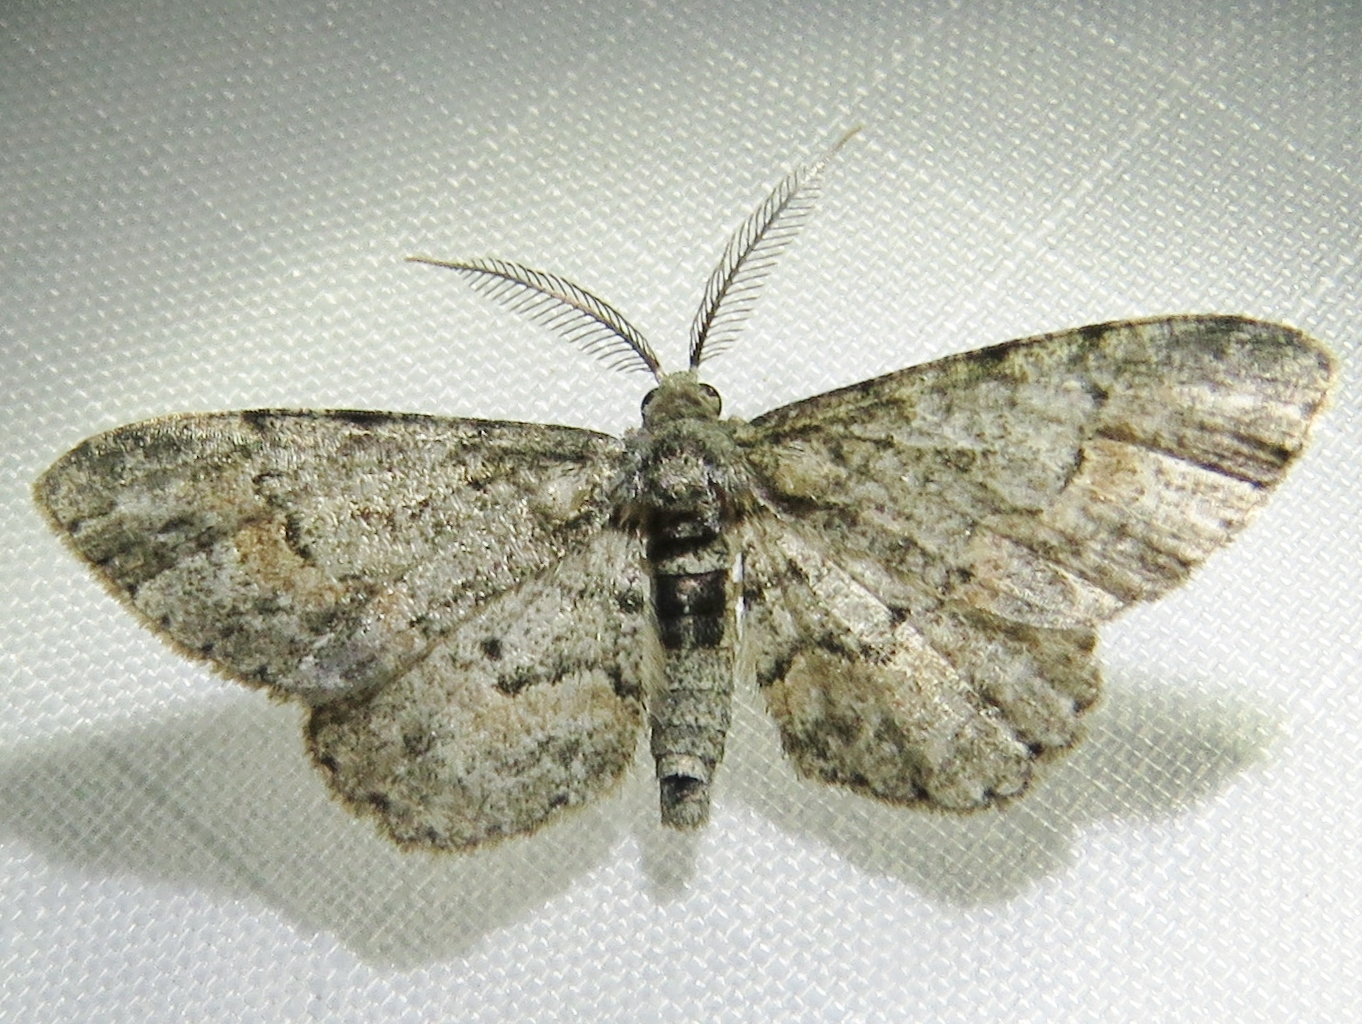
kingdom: Animalia
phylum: Arthropoda
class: Insecta
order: Lepidoptera
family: Geometridae
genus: Glenoides
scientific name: Glenoides texanaria
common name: Texas gray
